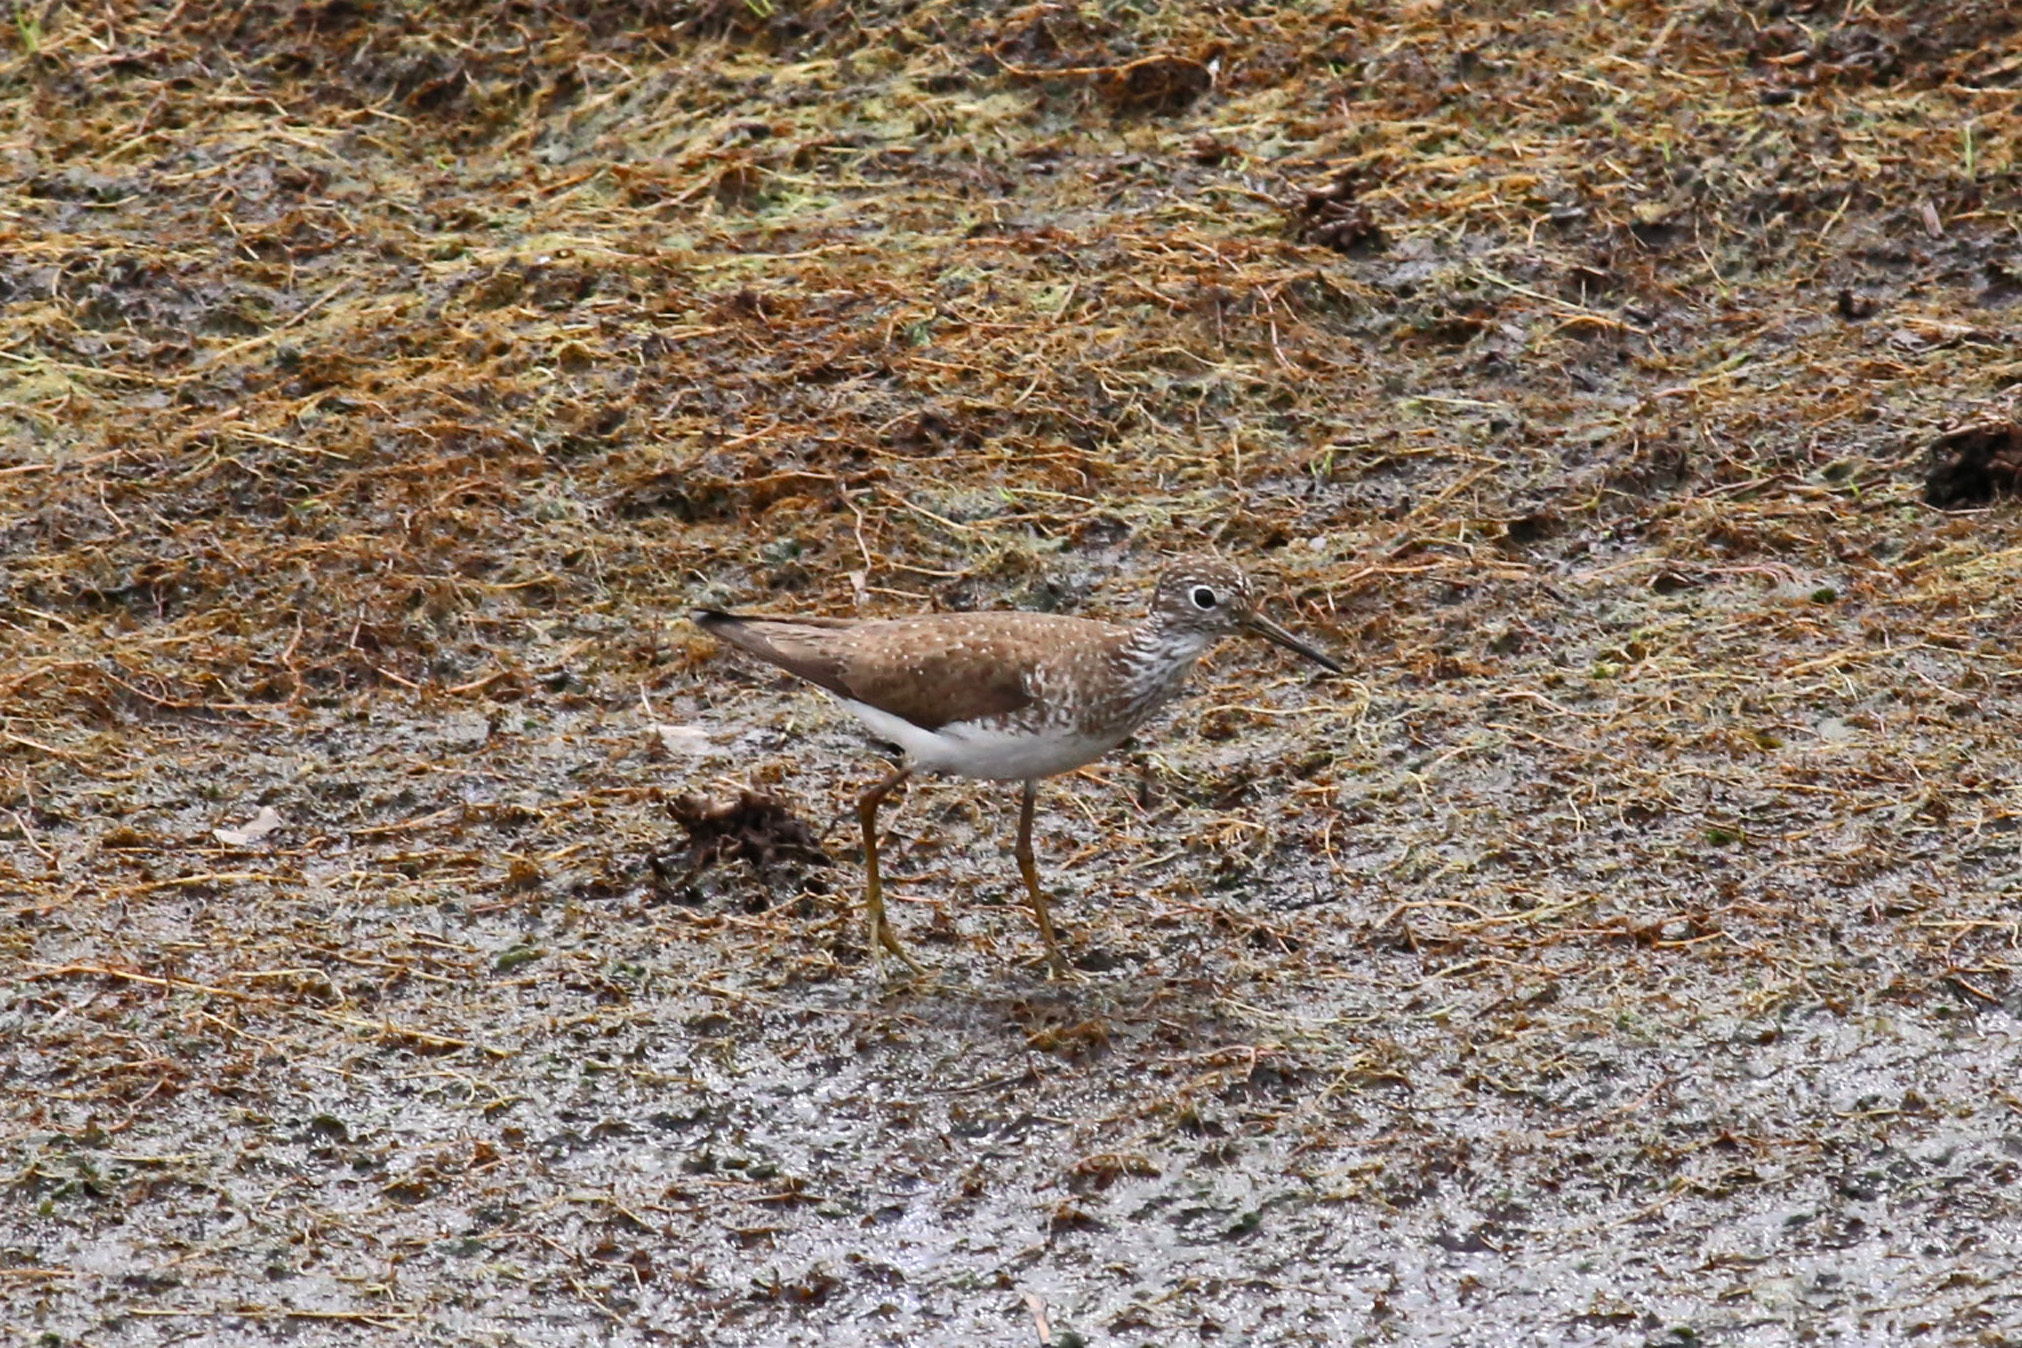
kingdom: Animalia
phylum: Chordata
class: Aves
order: Charadriiformes
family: Scolopacidae
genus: Tringa
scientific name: Tringa solitaria
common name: Solitary sandpiper
